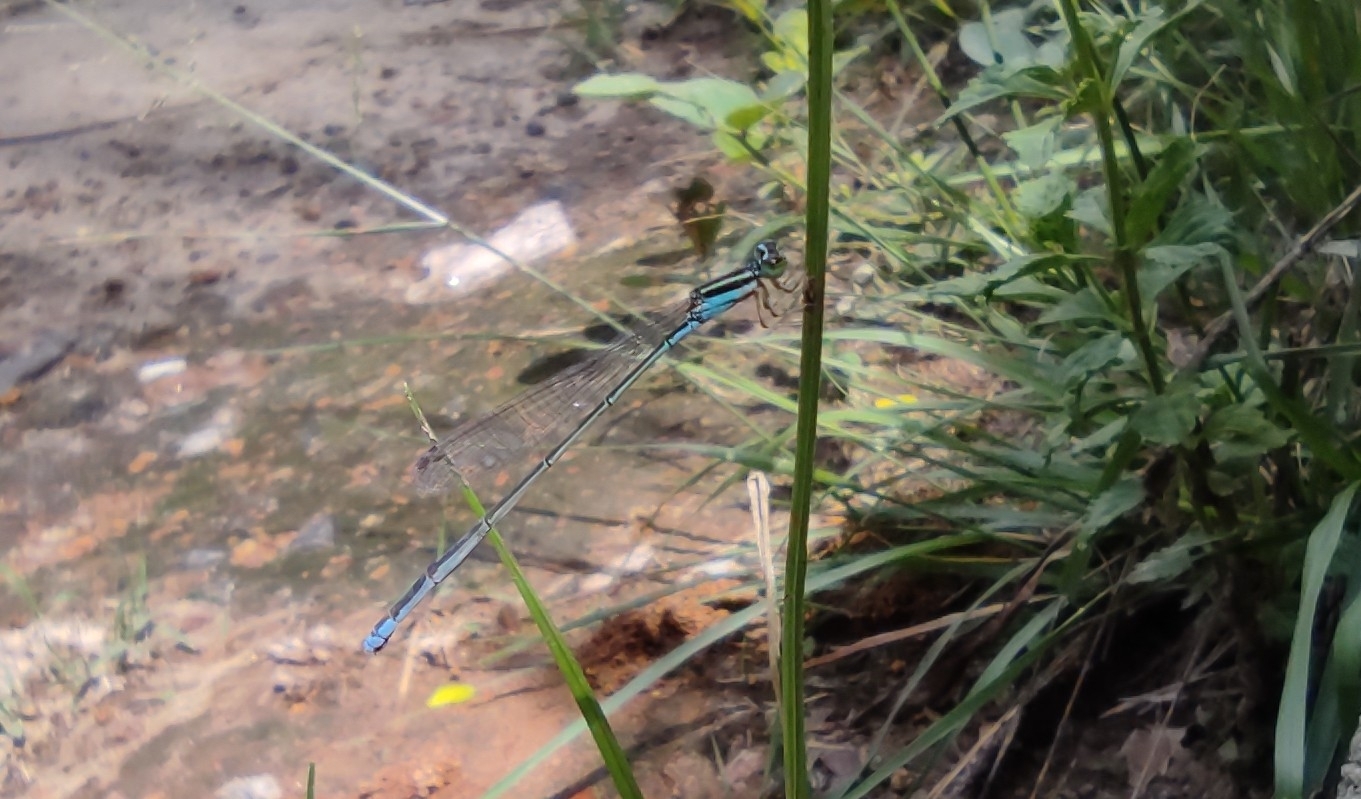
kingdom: Animalia
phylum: Arthropoda
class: Insecta
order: Odonata
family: Coenagrionidae
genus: Aciagrion
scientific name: Aciagrion occidentale
